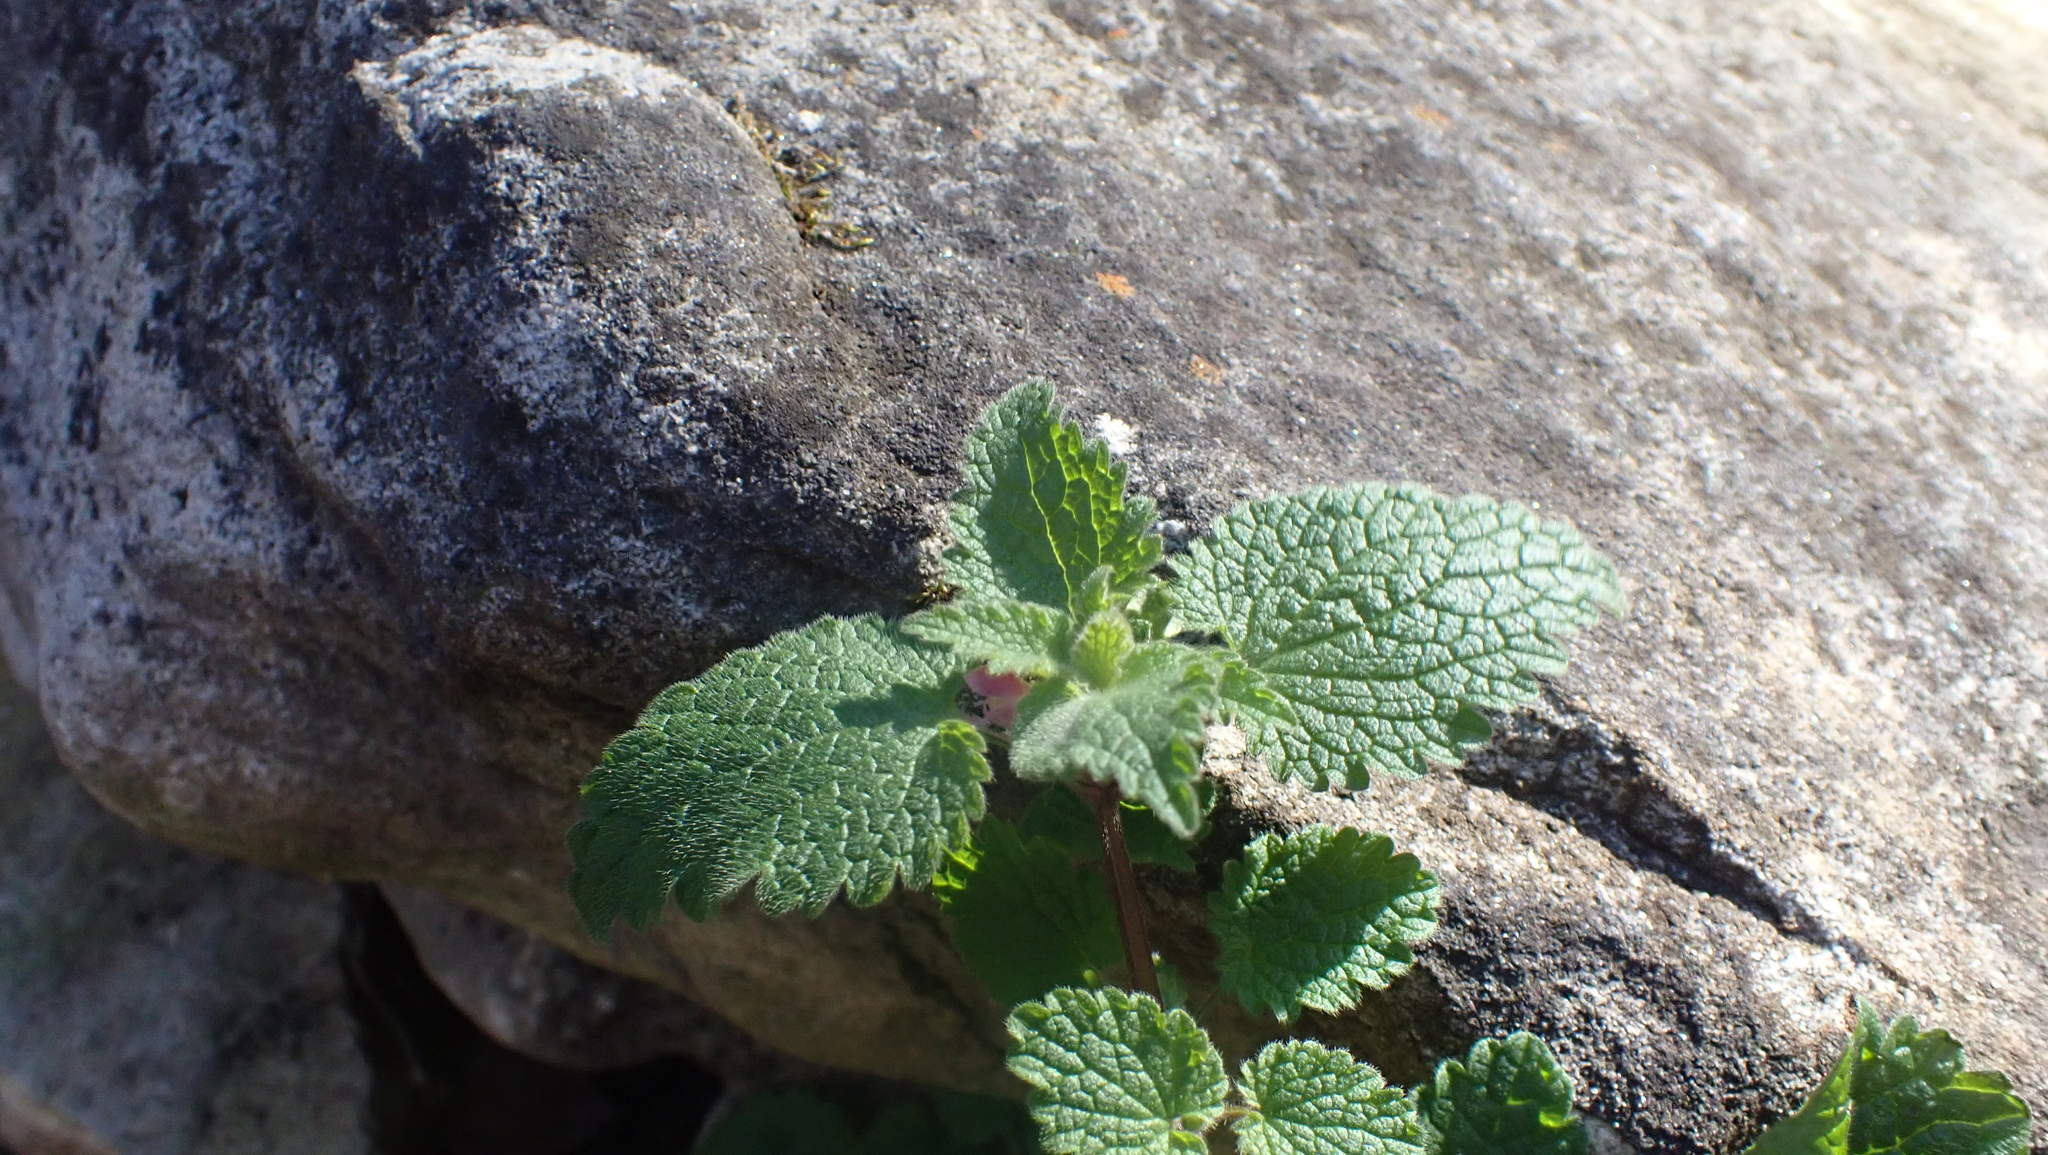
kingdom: Plantae
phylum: Tracheophyta
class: Magnoliopsida
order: Lamiales
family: Lamiaceae
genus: Lamium
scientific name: Lamium purpureum
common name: Red dead-nettle
